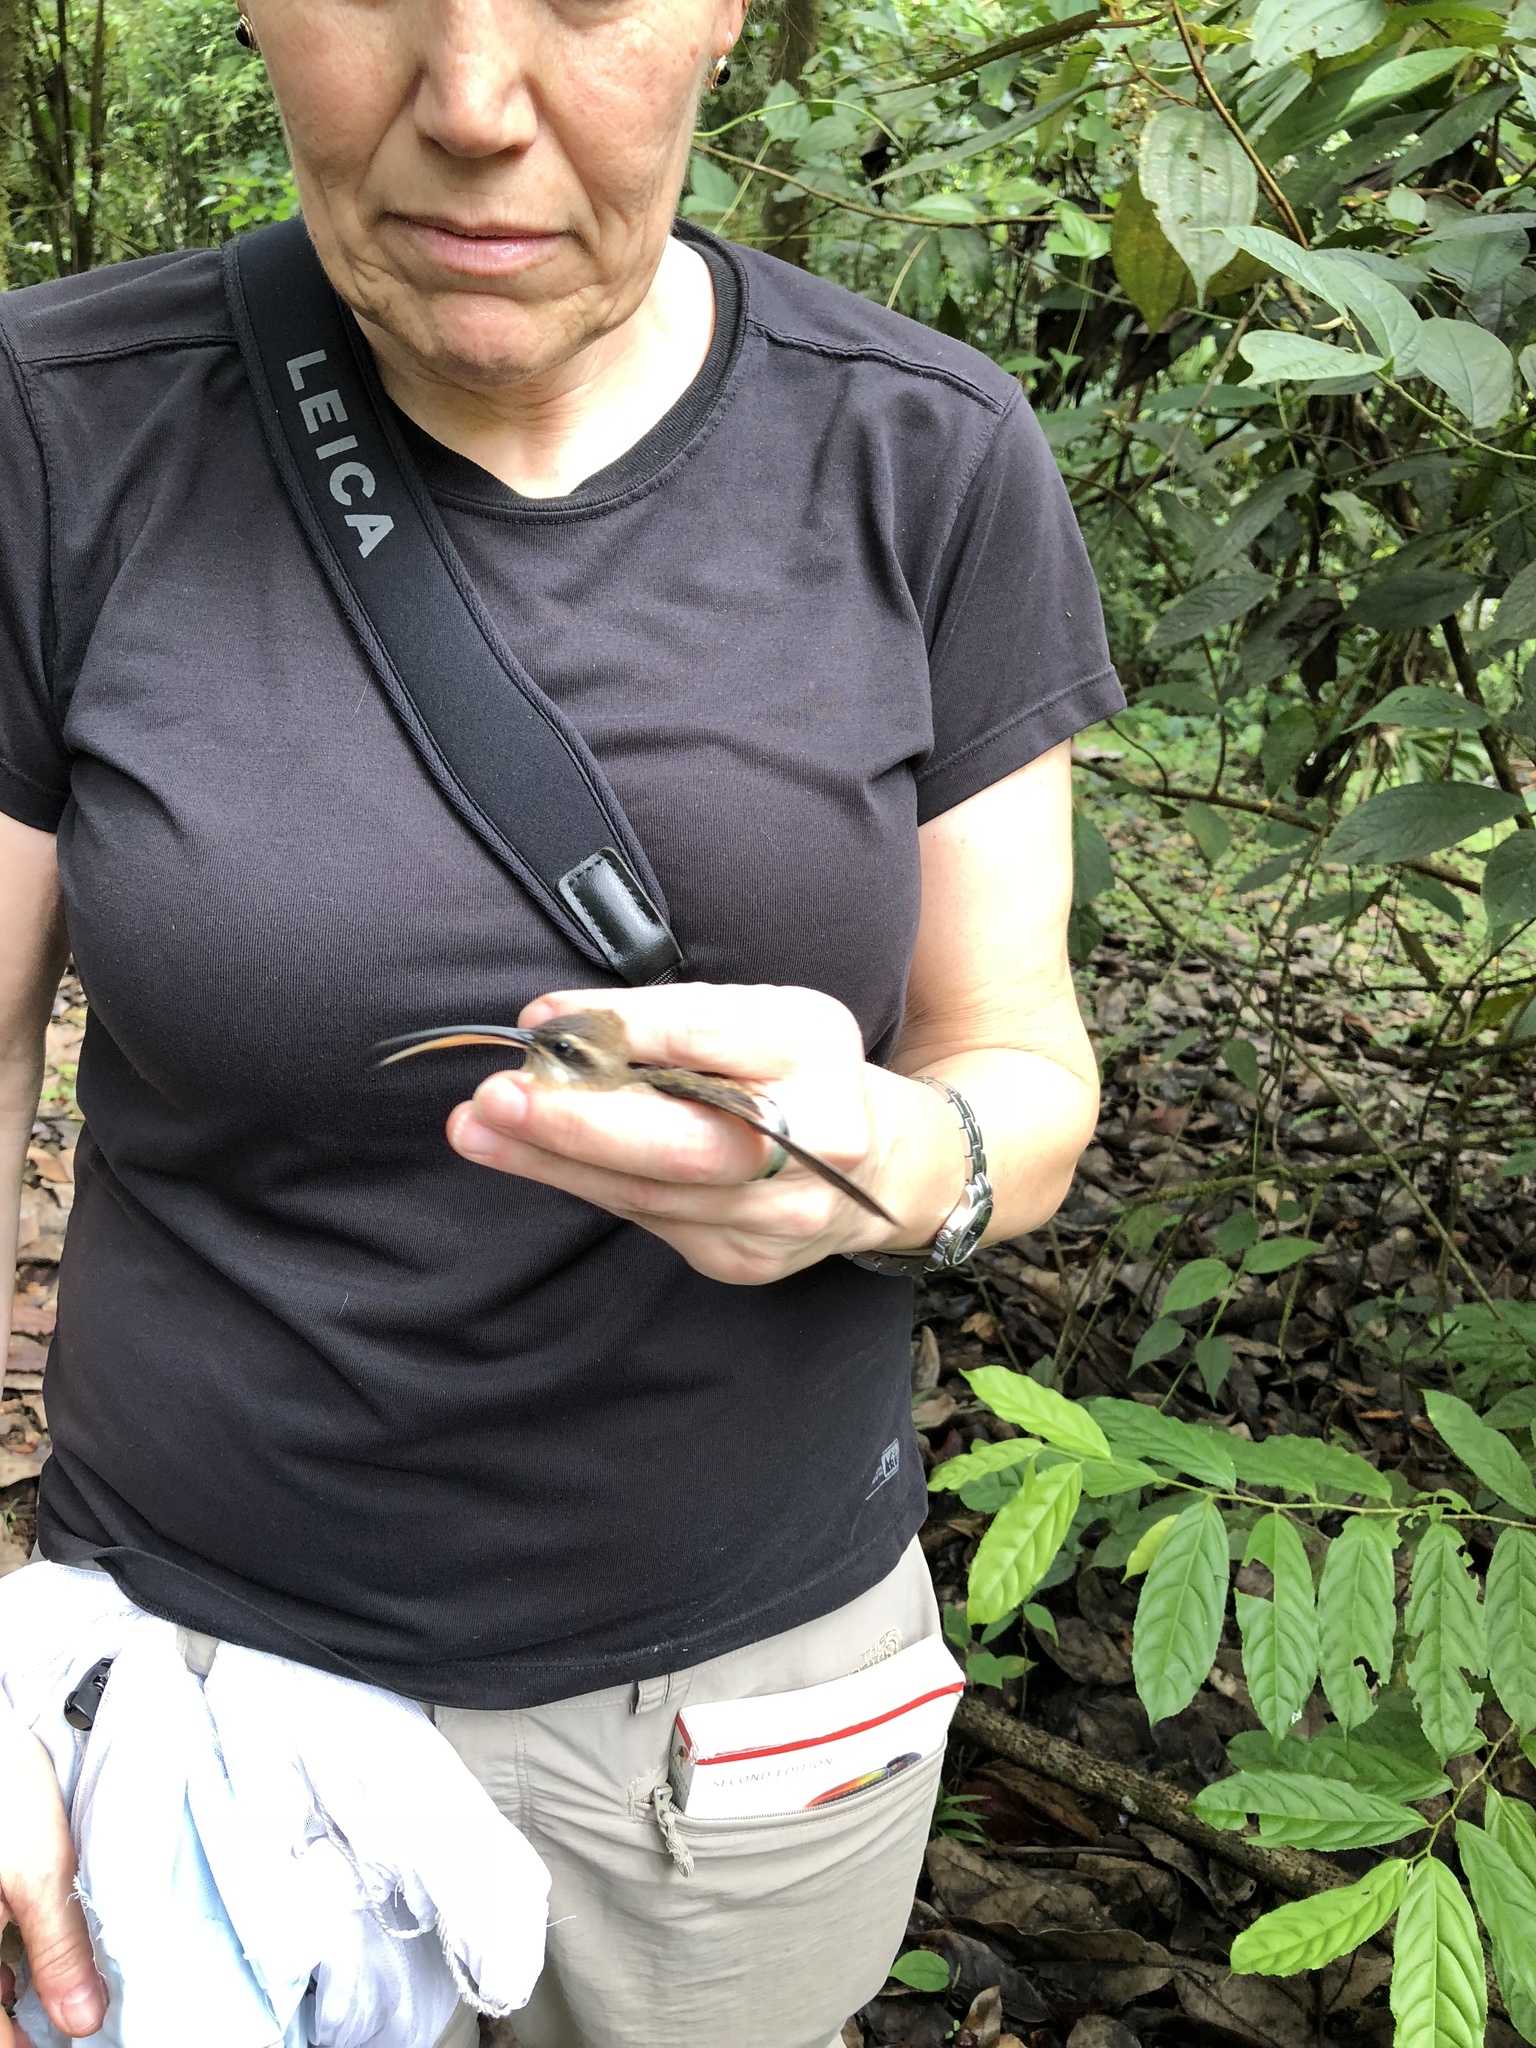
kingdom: Animalia
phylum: Chordata
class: Aves
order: Apodiformes
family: Trochilidae
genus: Phaethornis
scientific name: Phaethornis longirostris
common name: Long-billed hermit
